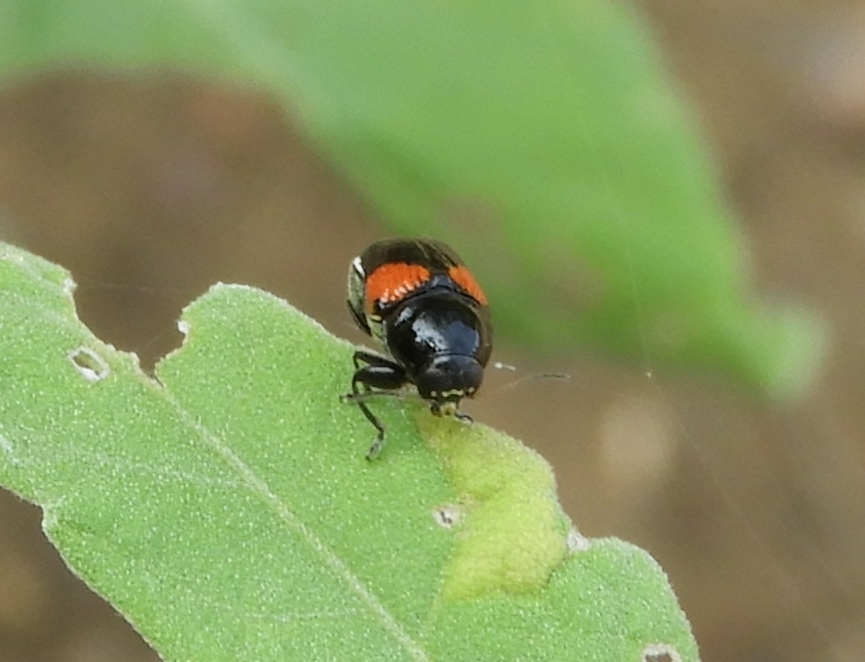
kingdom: Animalia
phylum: Arthropoda
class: Insecta
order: Coleoptera
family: Chrysomelidae
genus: Griburius
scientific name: Griburius albilabris
